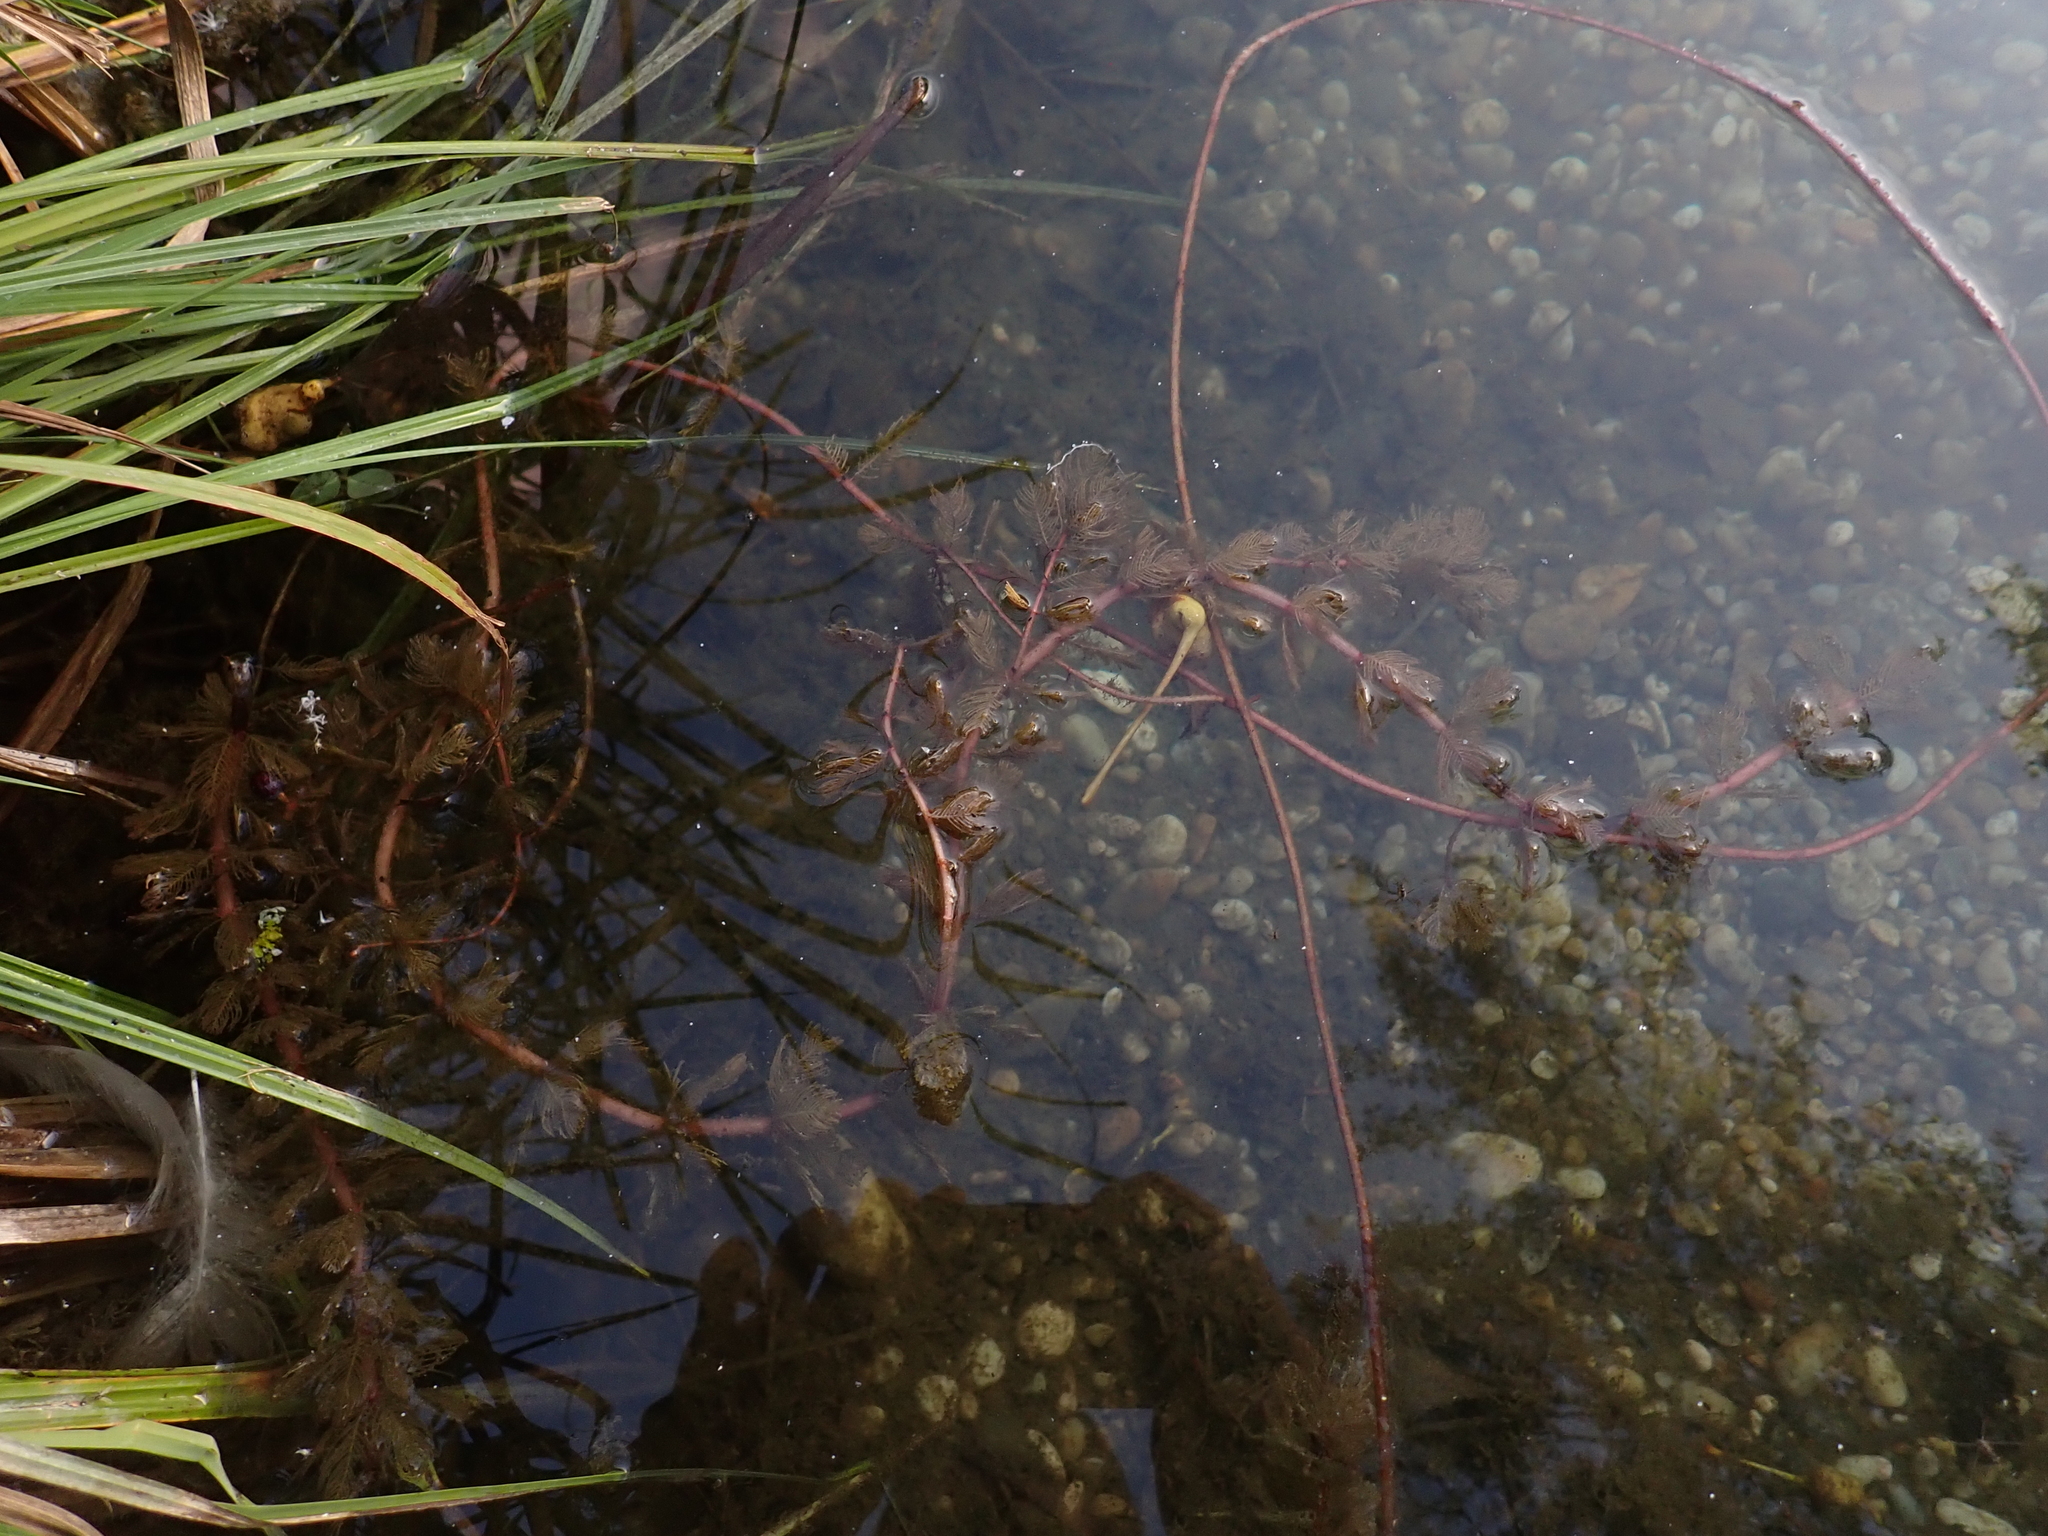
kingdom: Plantae
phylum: Tracheophyta
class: Magnoliopsida
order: Saxifragales
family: Haloragaceae
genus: Myriophyllum
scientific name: Myriophyllum spicatum
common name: Spiked water-milfoil
